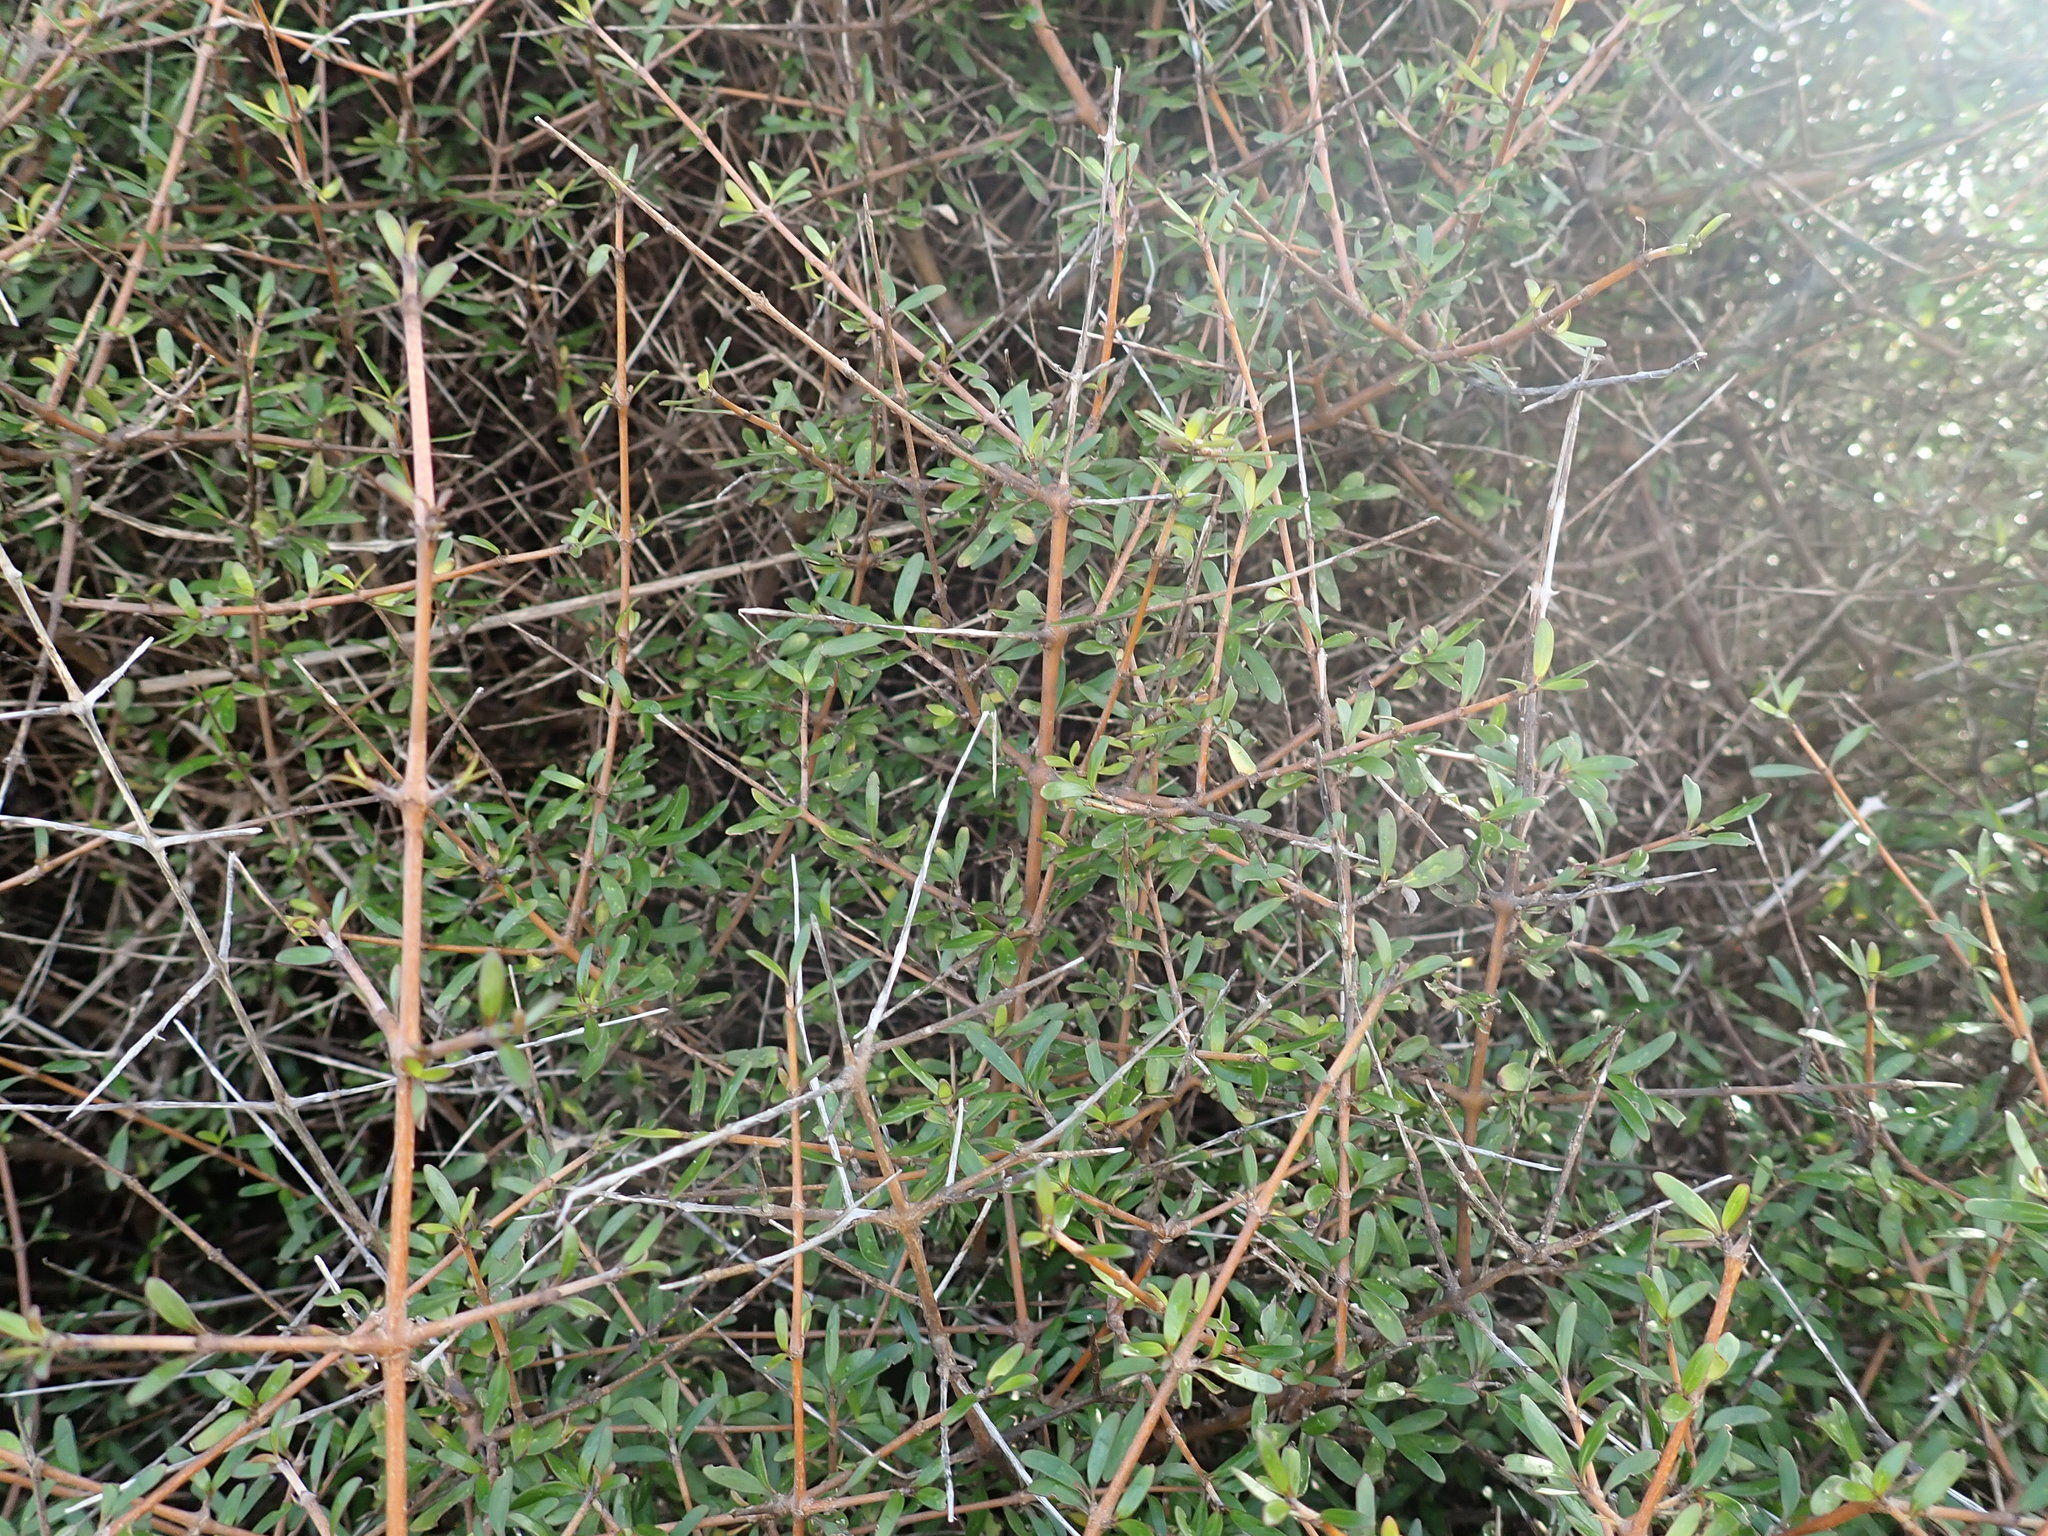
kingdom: Plantae
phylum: Tracheophyta
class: Magnoliopsida
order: Gentianales
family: Rubiaceae
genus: Coprosma
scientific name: Coprosma propinqua
